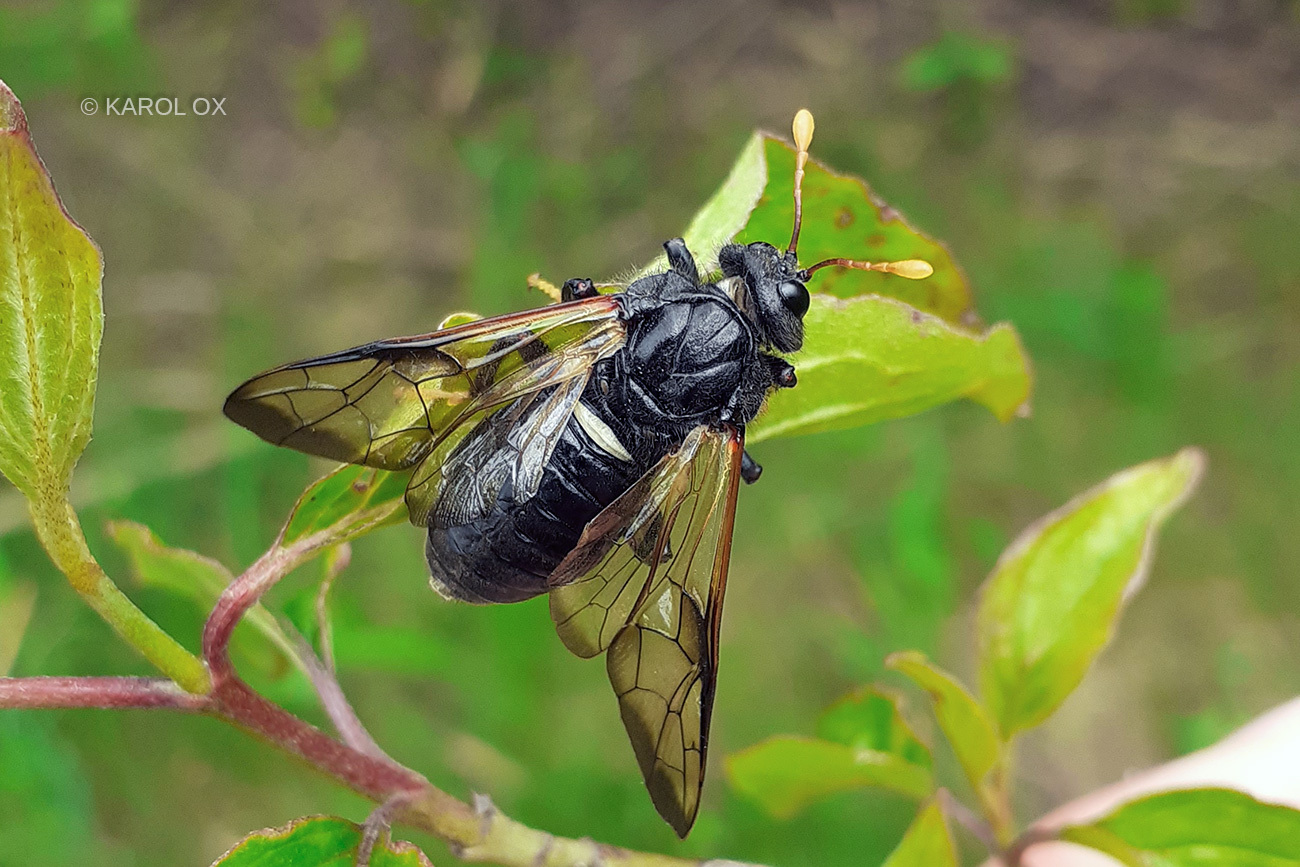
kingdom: Animalia
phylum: Arthropoda
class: Insecta
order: Hymenoptera
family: Cimbicidae
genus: Cimbex
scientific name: Cimbex femoratus
